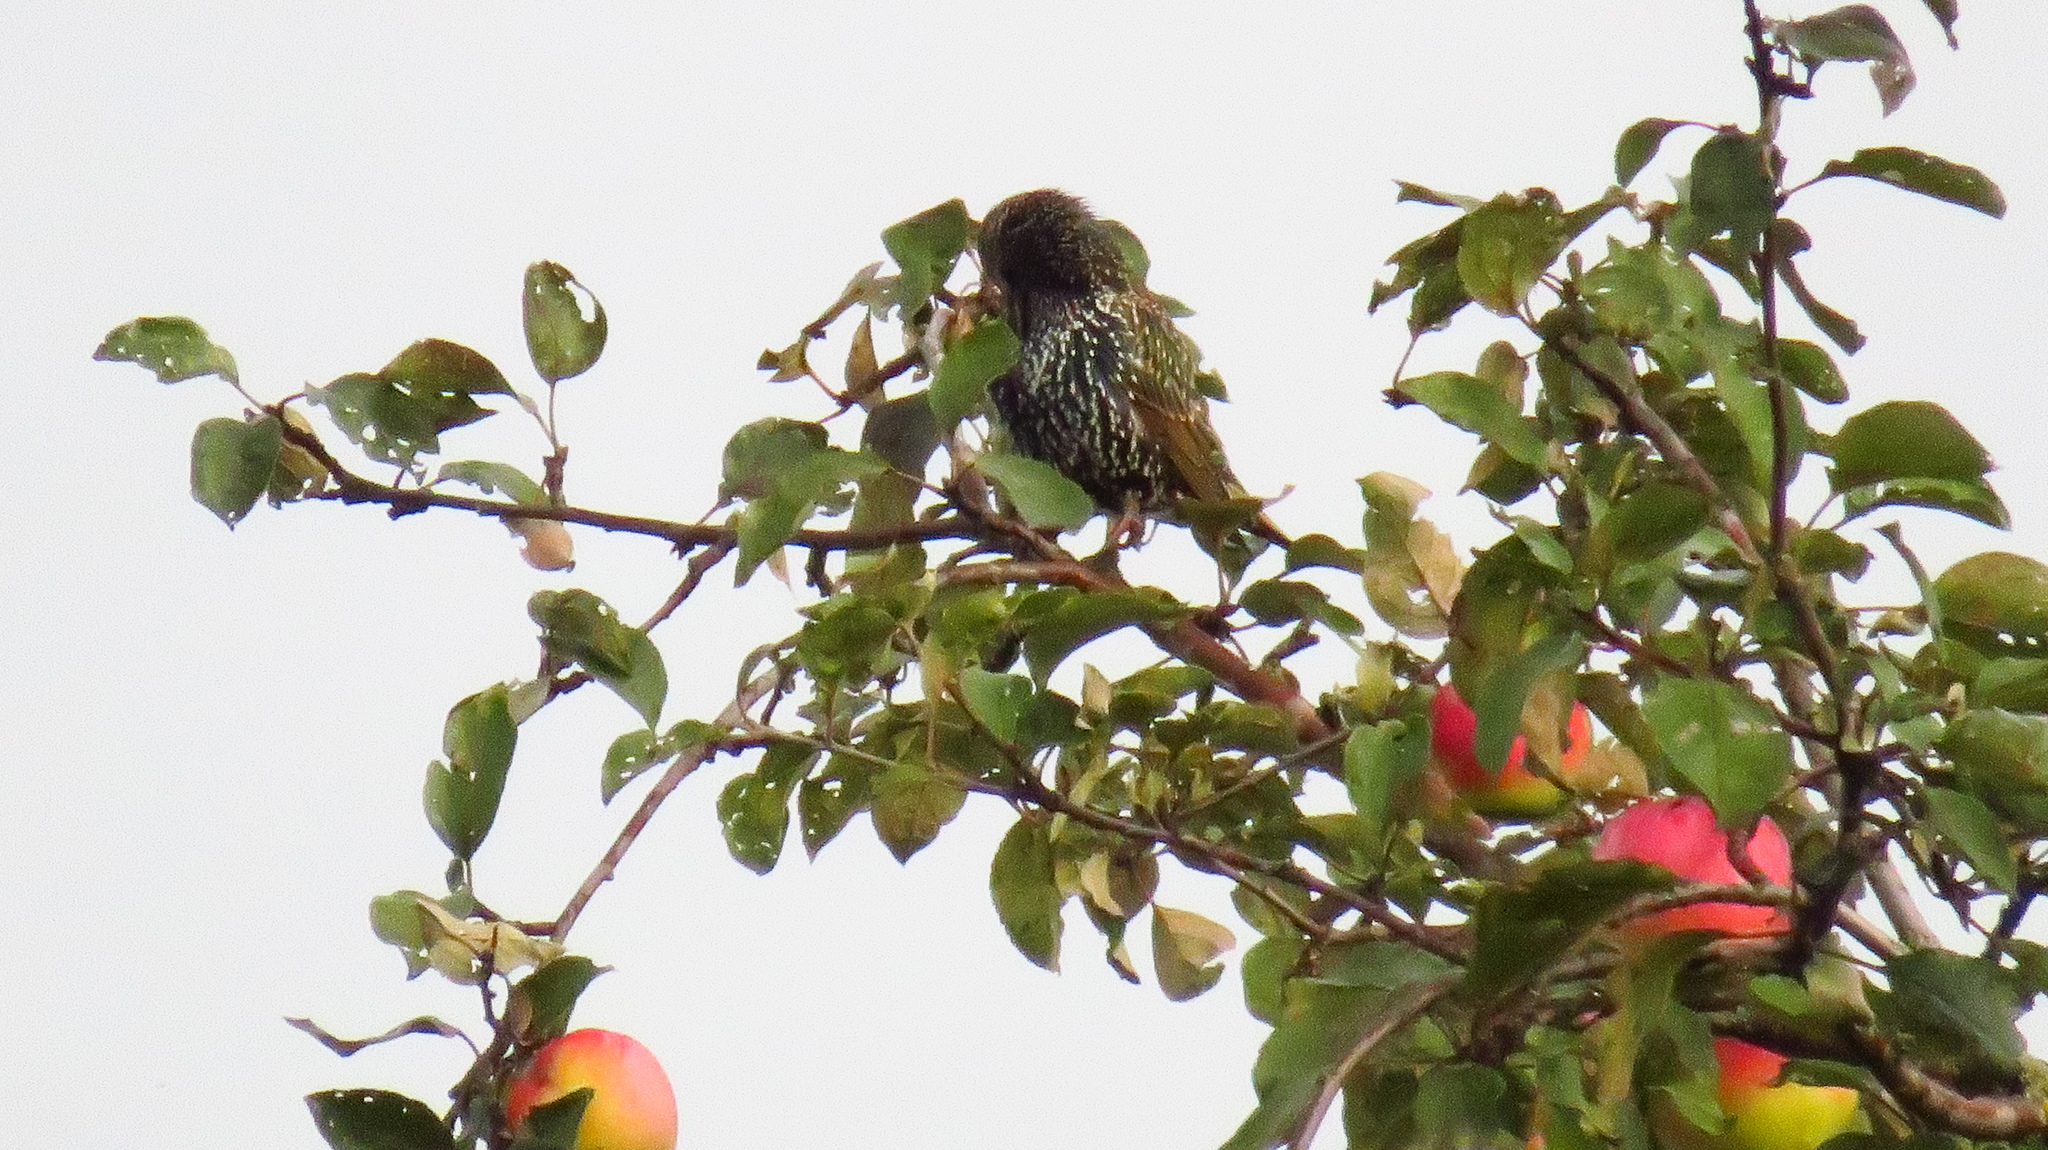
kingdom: Animalia
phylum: Chordata
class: Aves
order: Passeriformes
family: Sturnidae
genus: Sturnus
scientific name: Sturnus vulgaris
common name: Common starling
